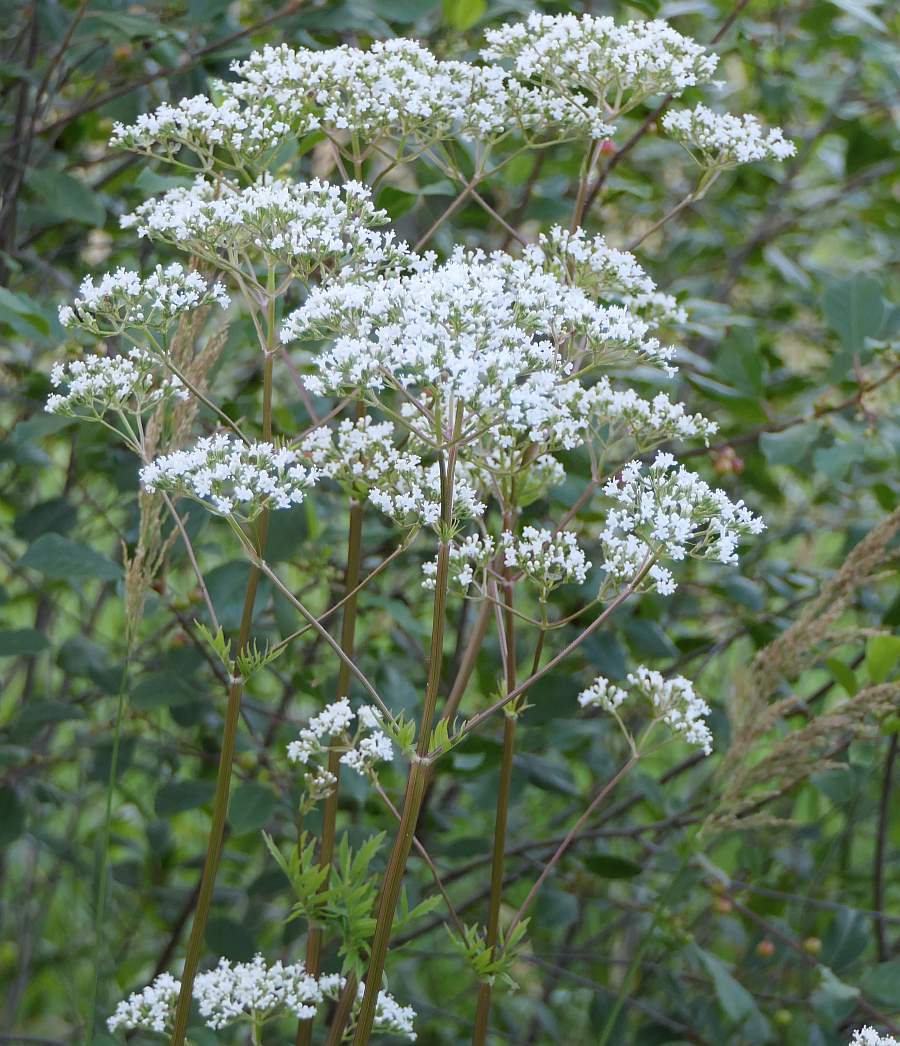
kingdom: Plantae
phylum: Tracheophyta
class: Magnoliopsida
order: Dipsacales
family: Caprifoliaceae
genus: Valeriana
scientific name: Valeriana officinalis
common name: Common valerian
